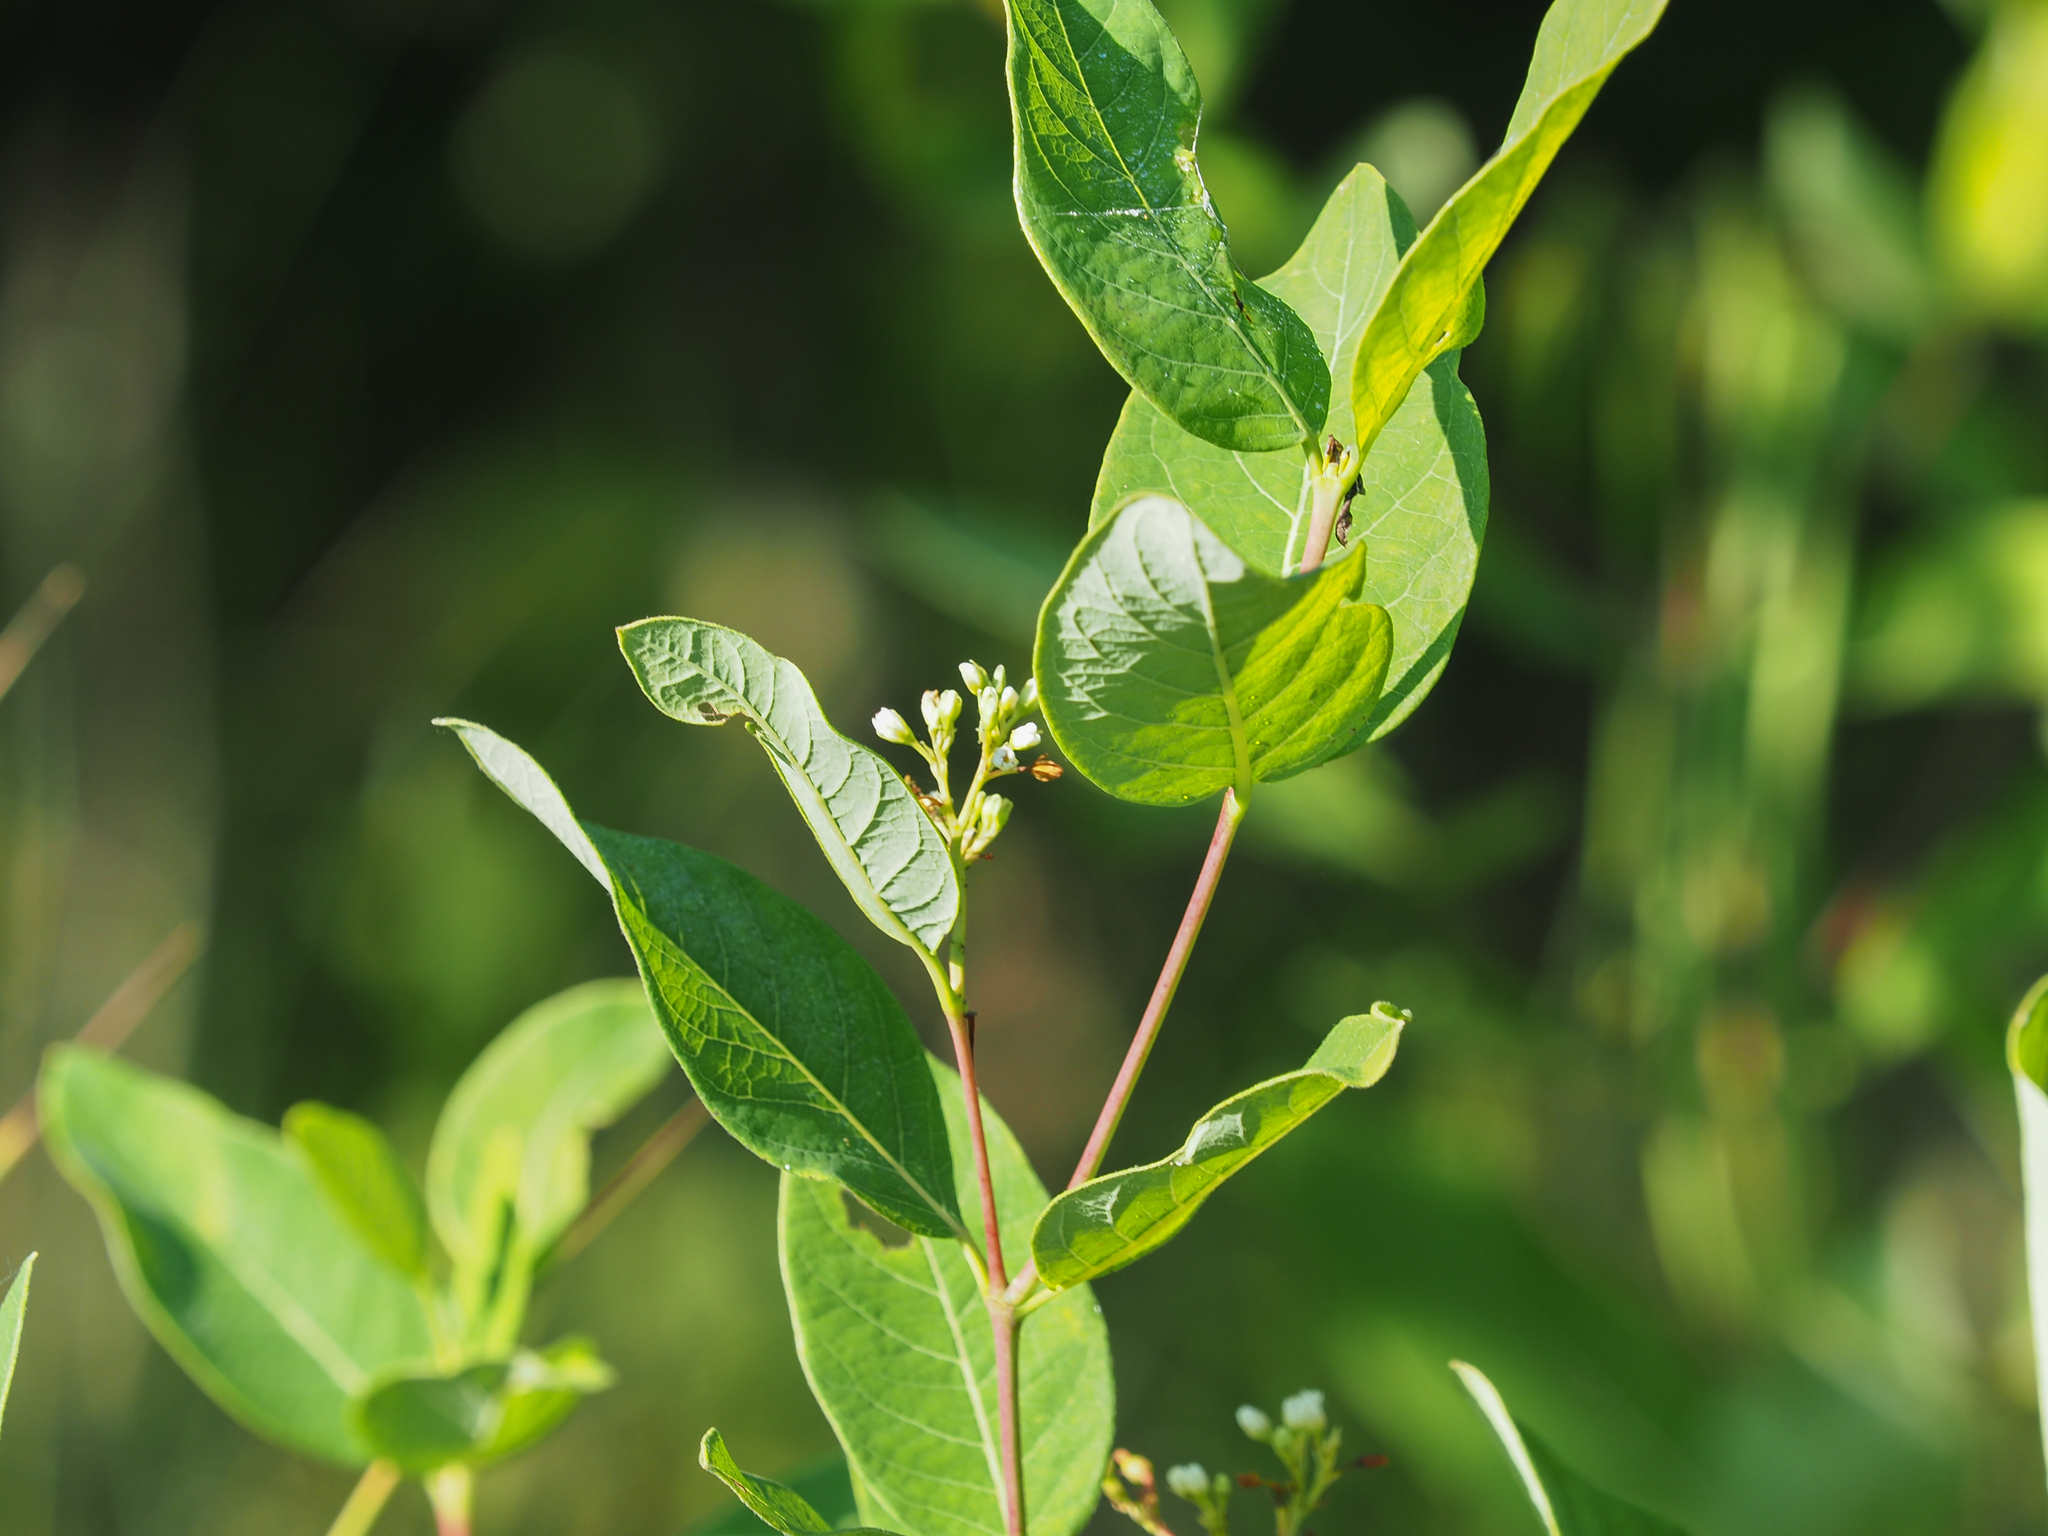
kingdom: Plantae
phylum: Tracheophyta
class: Magnoliopsida
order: Gentianales
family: Apocynaceae
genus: Apocynum
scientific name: Apocynum cannabinum
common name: Hemp dogbane
